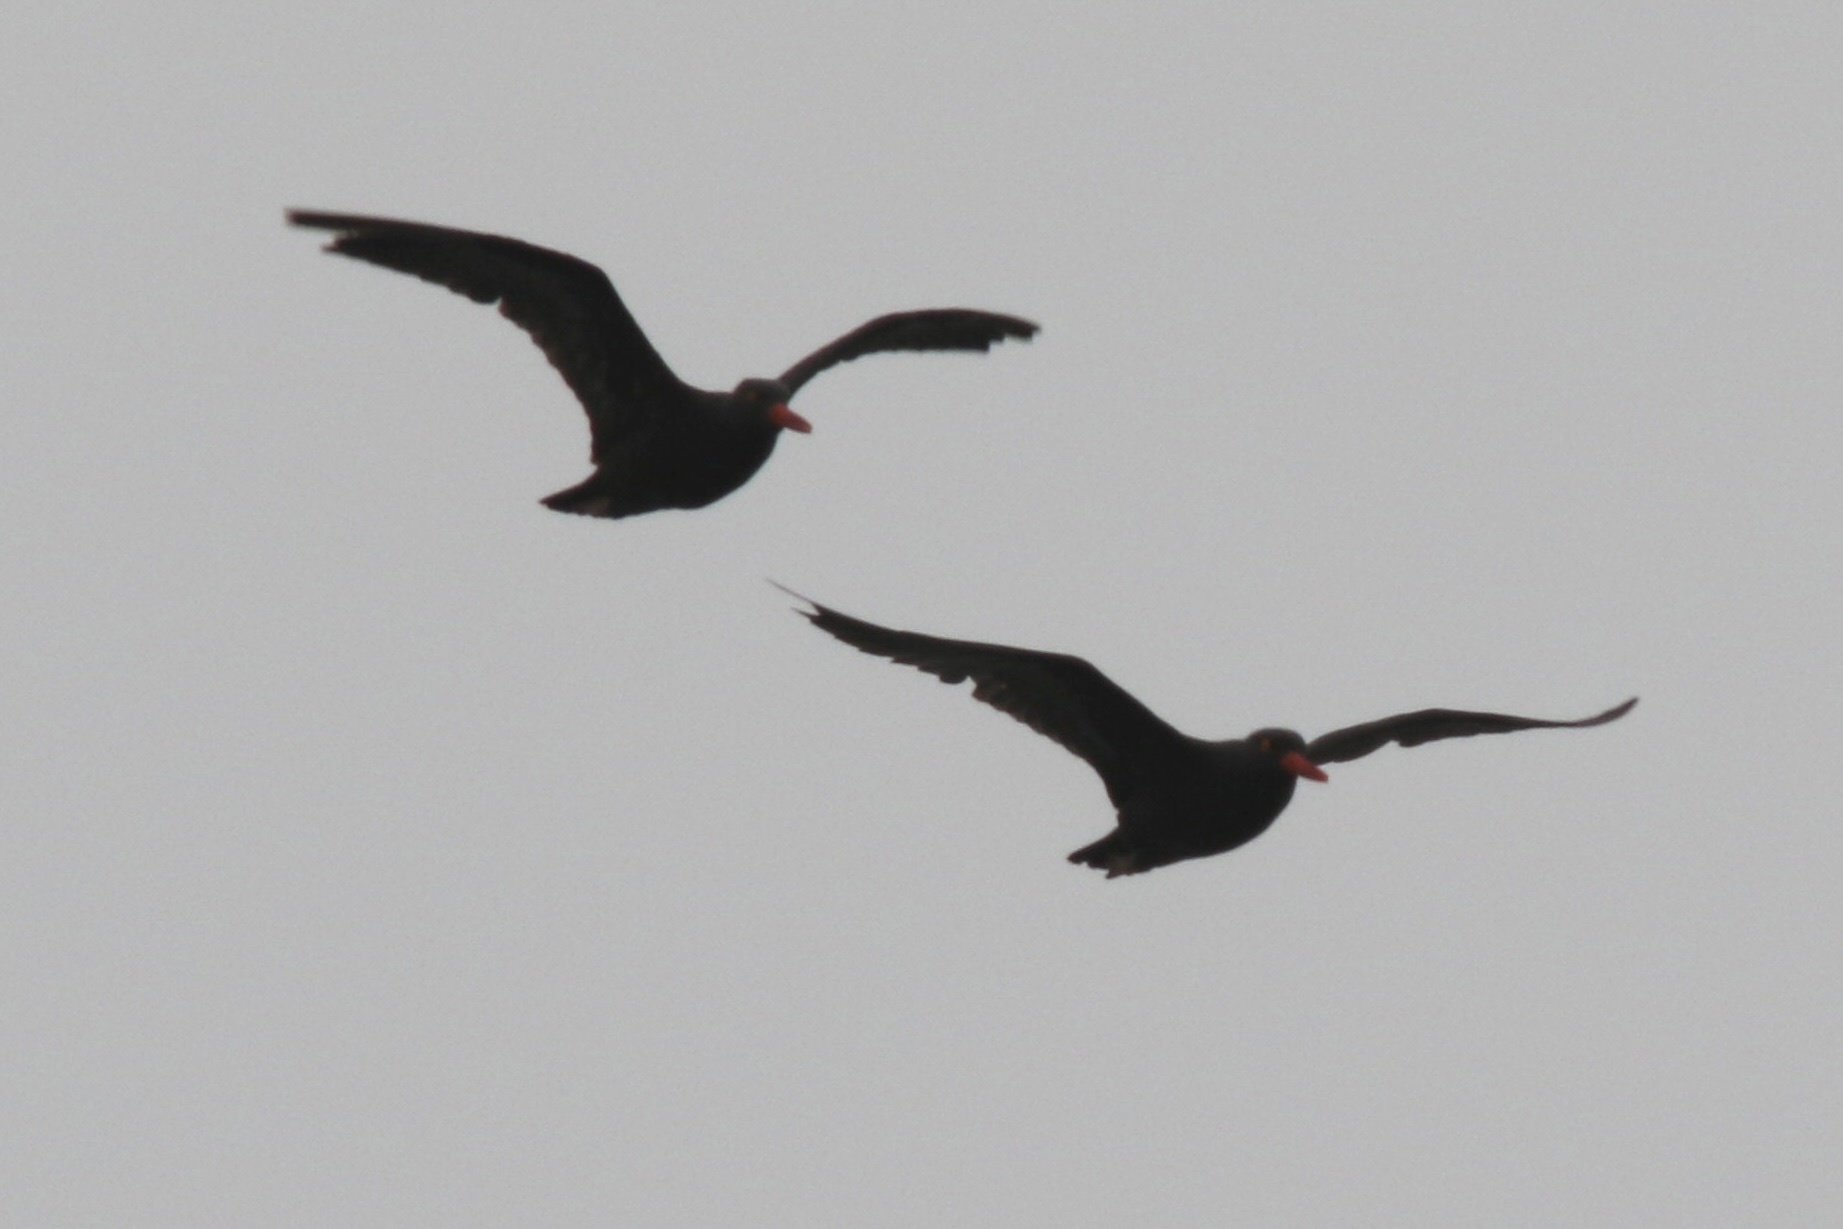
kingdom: Animalia
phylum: Chordata
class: Aves
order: Charadriiformes
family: Haematopodidae
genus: Haematopus
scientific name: Haematopus bachmani
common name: Black oystercatcher
